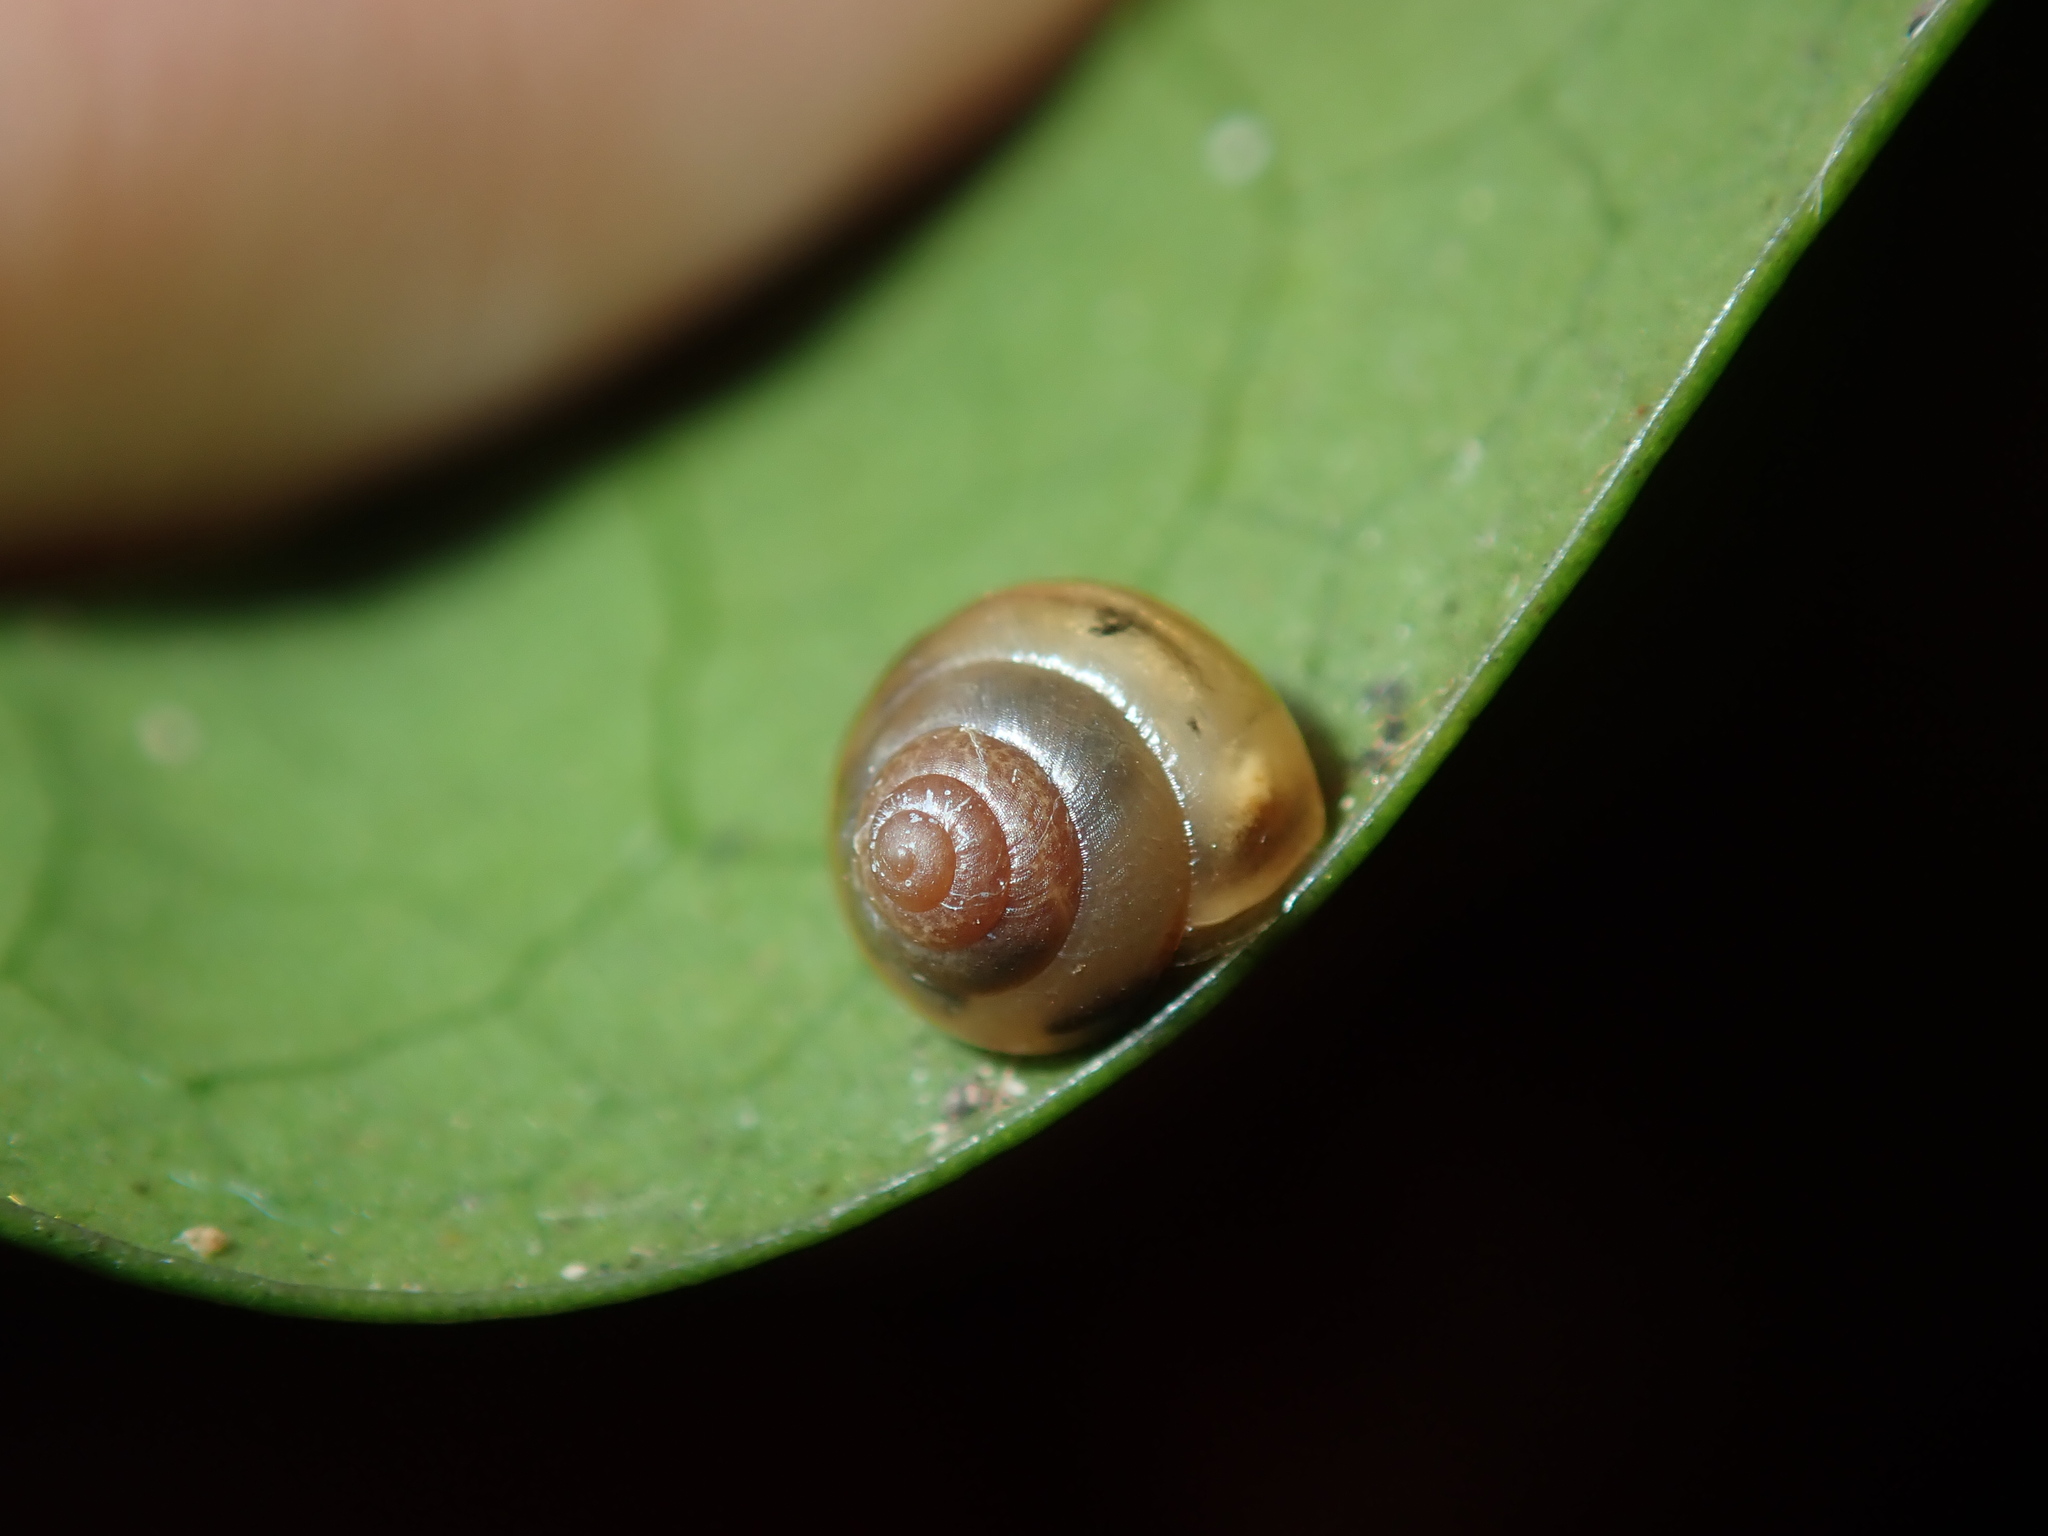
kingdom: Animalia
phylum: Mollusca
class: Gastropoda
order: Stylommatophora
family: Euconulidae
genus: Coneuplecta
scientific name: Coneuplecta calculosa
